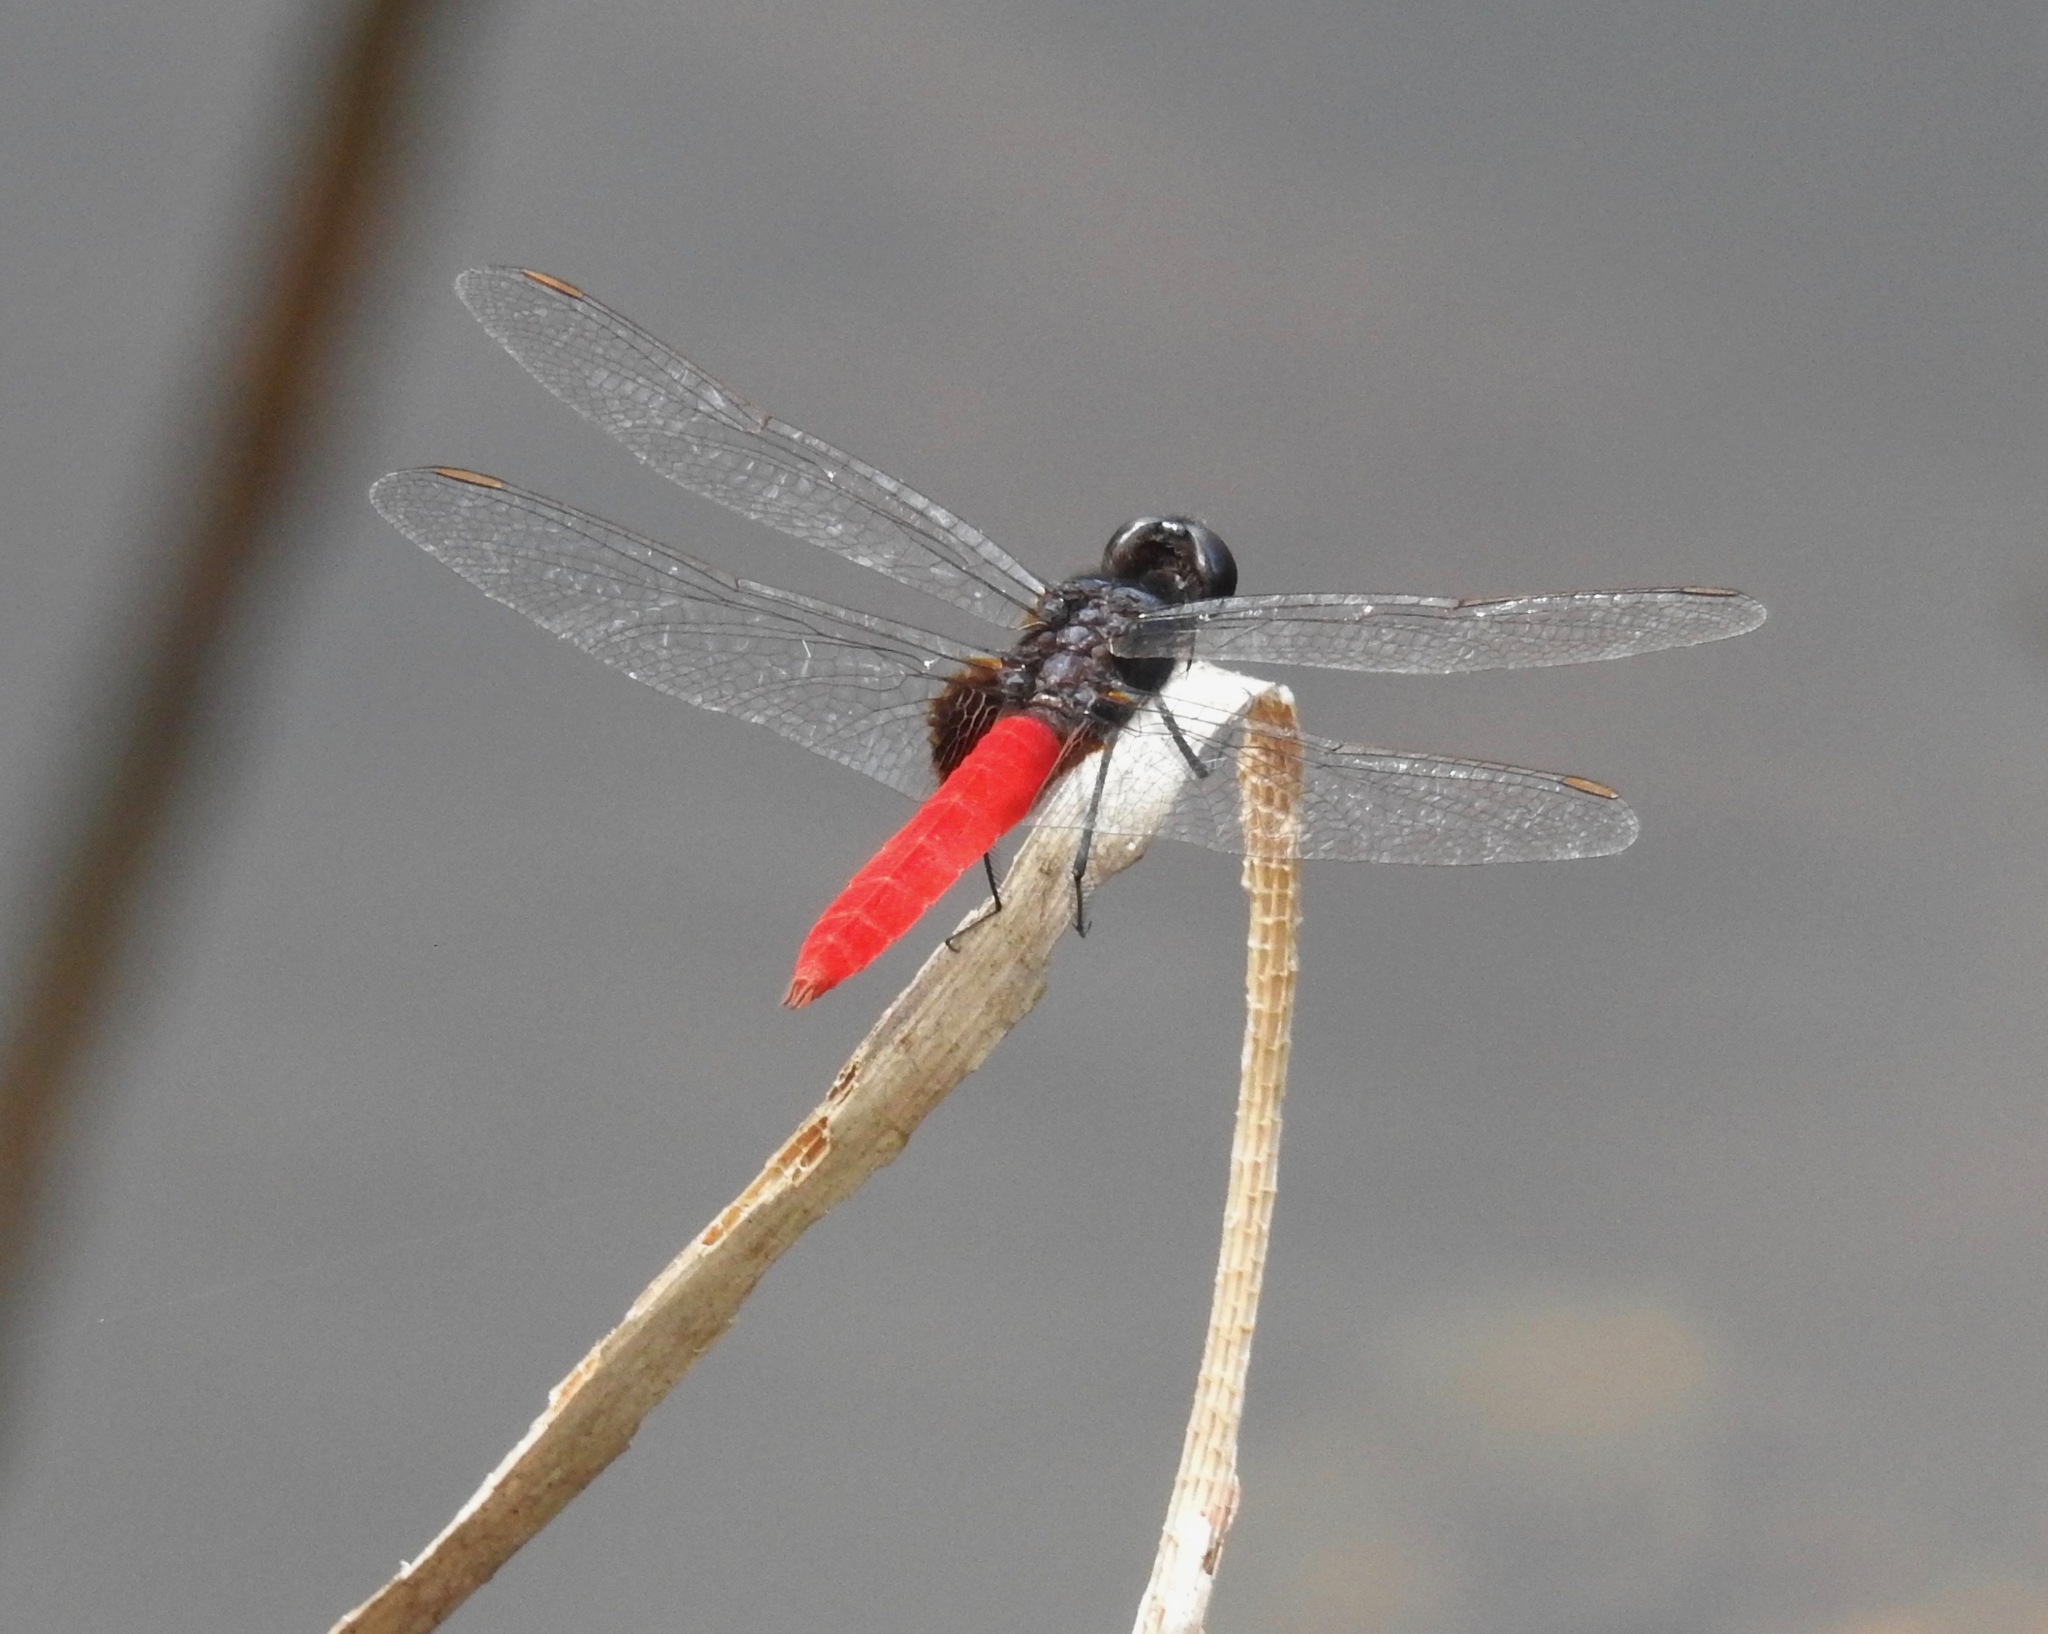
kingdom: Animalia
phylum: Arthropoda
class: Insecta
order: Odonata
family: Libellulidae
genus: Planiplax
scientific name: Planiplax phoenicura
